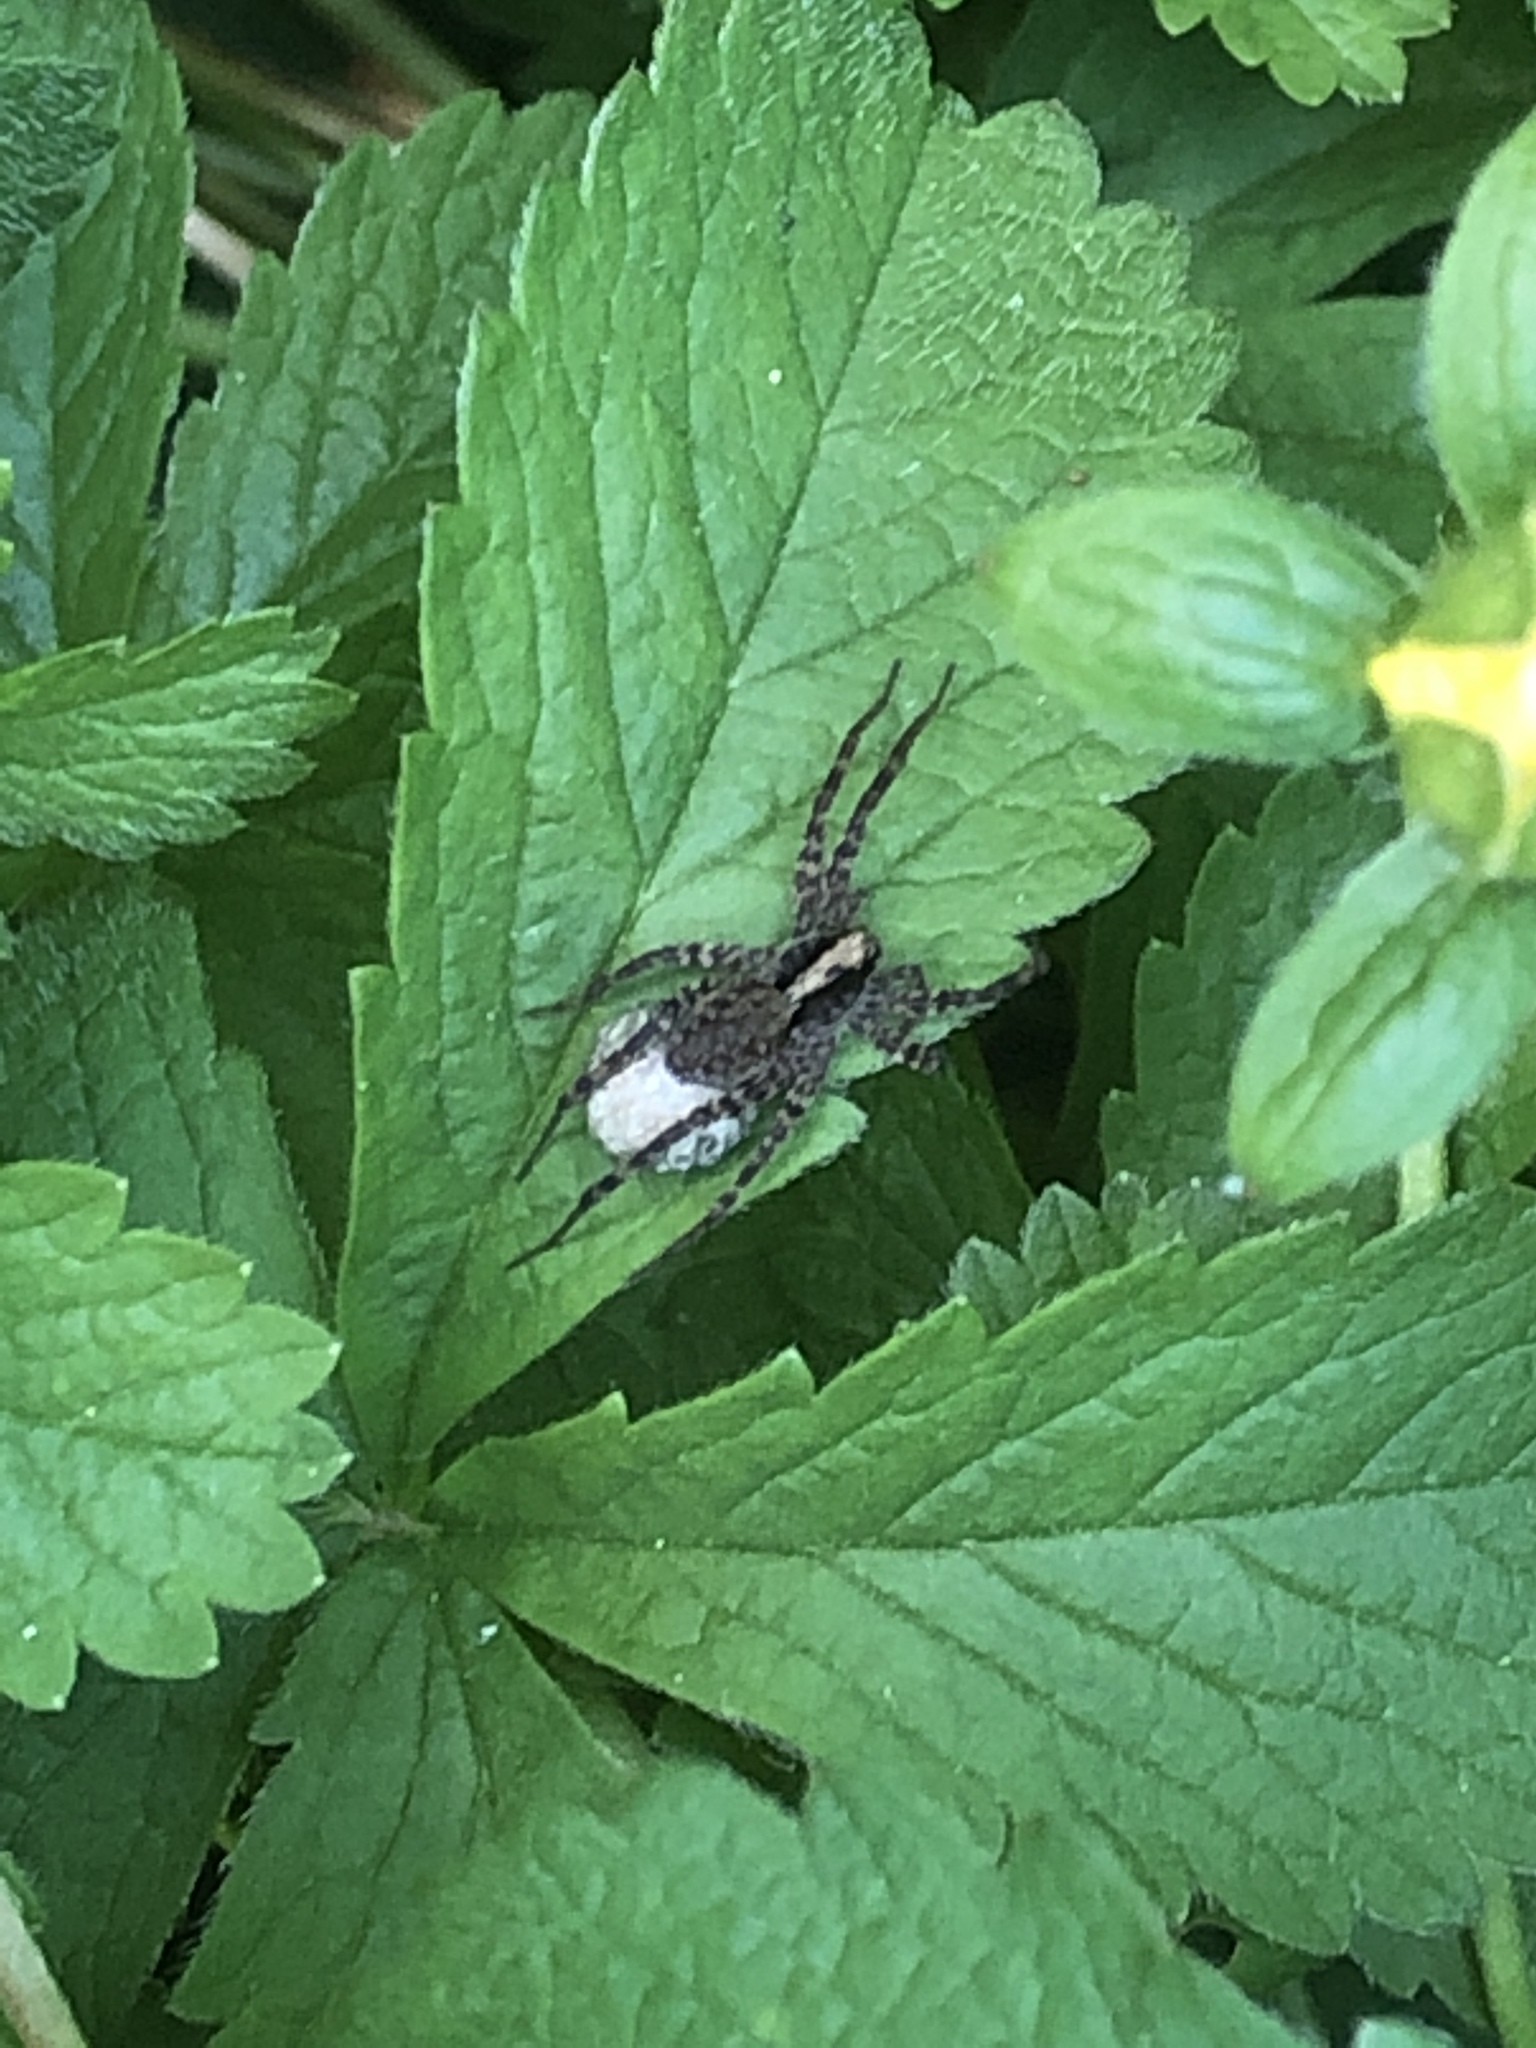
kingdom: Animalia
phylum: Arthropoda
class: Arachnida
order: Araneae
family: Lycosidae
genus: Pardosa
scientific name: Pardosa
